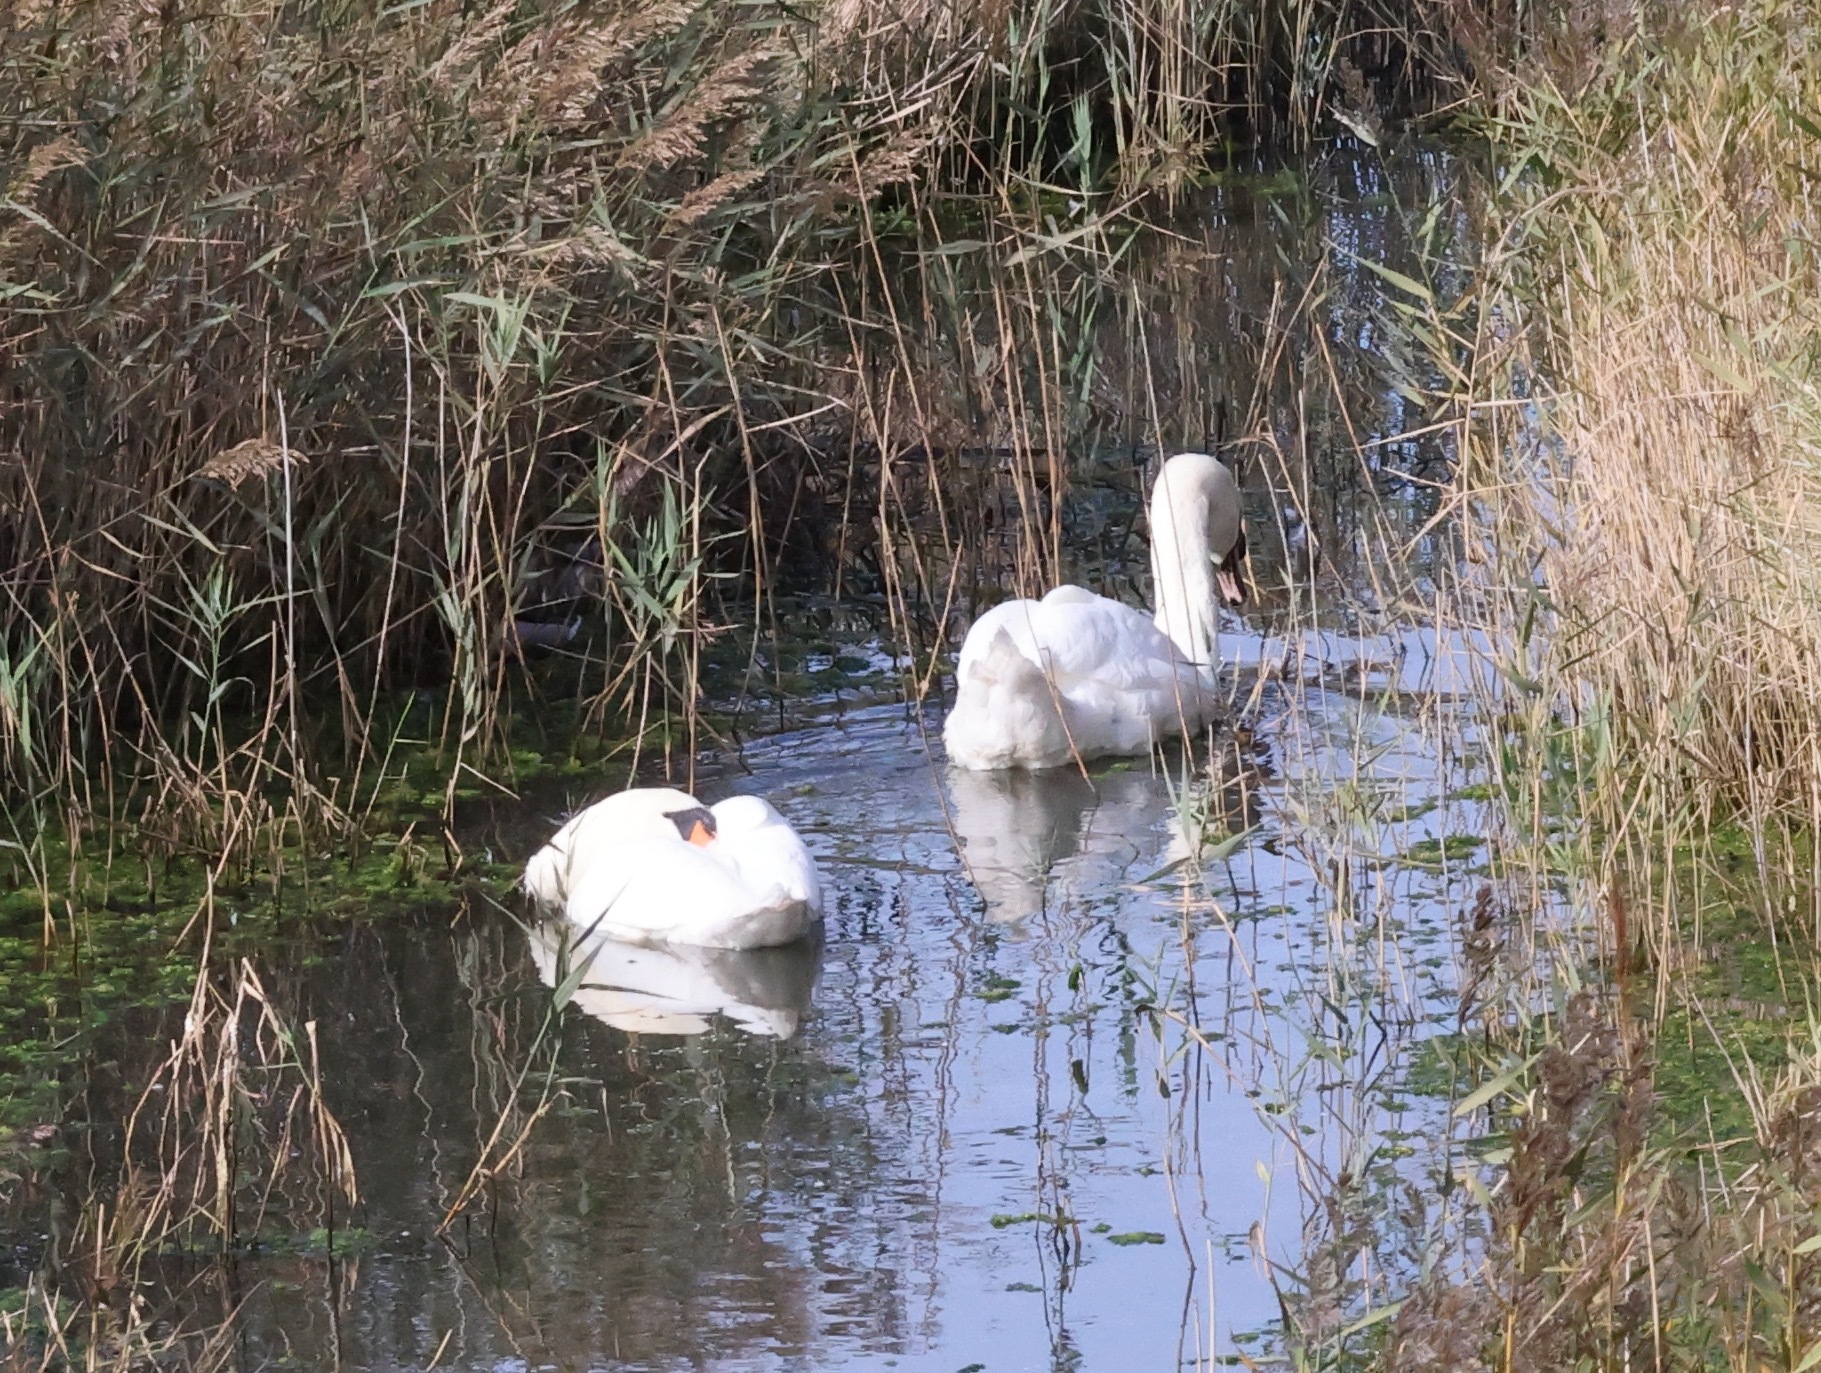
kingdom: Animalia
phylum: Chordata
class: Aves
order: Anseriformes
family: Anatidae
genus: Cygnus
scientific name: Cygnus olor
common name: Mute swan
